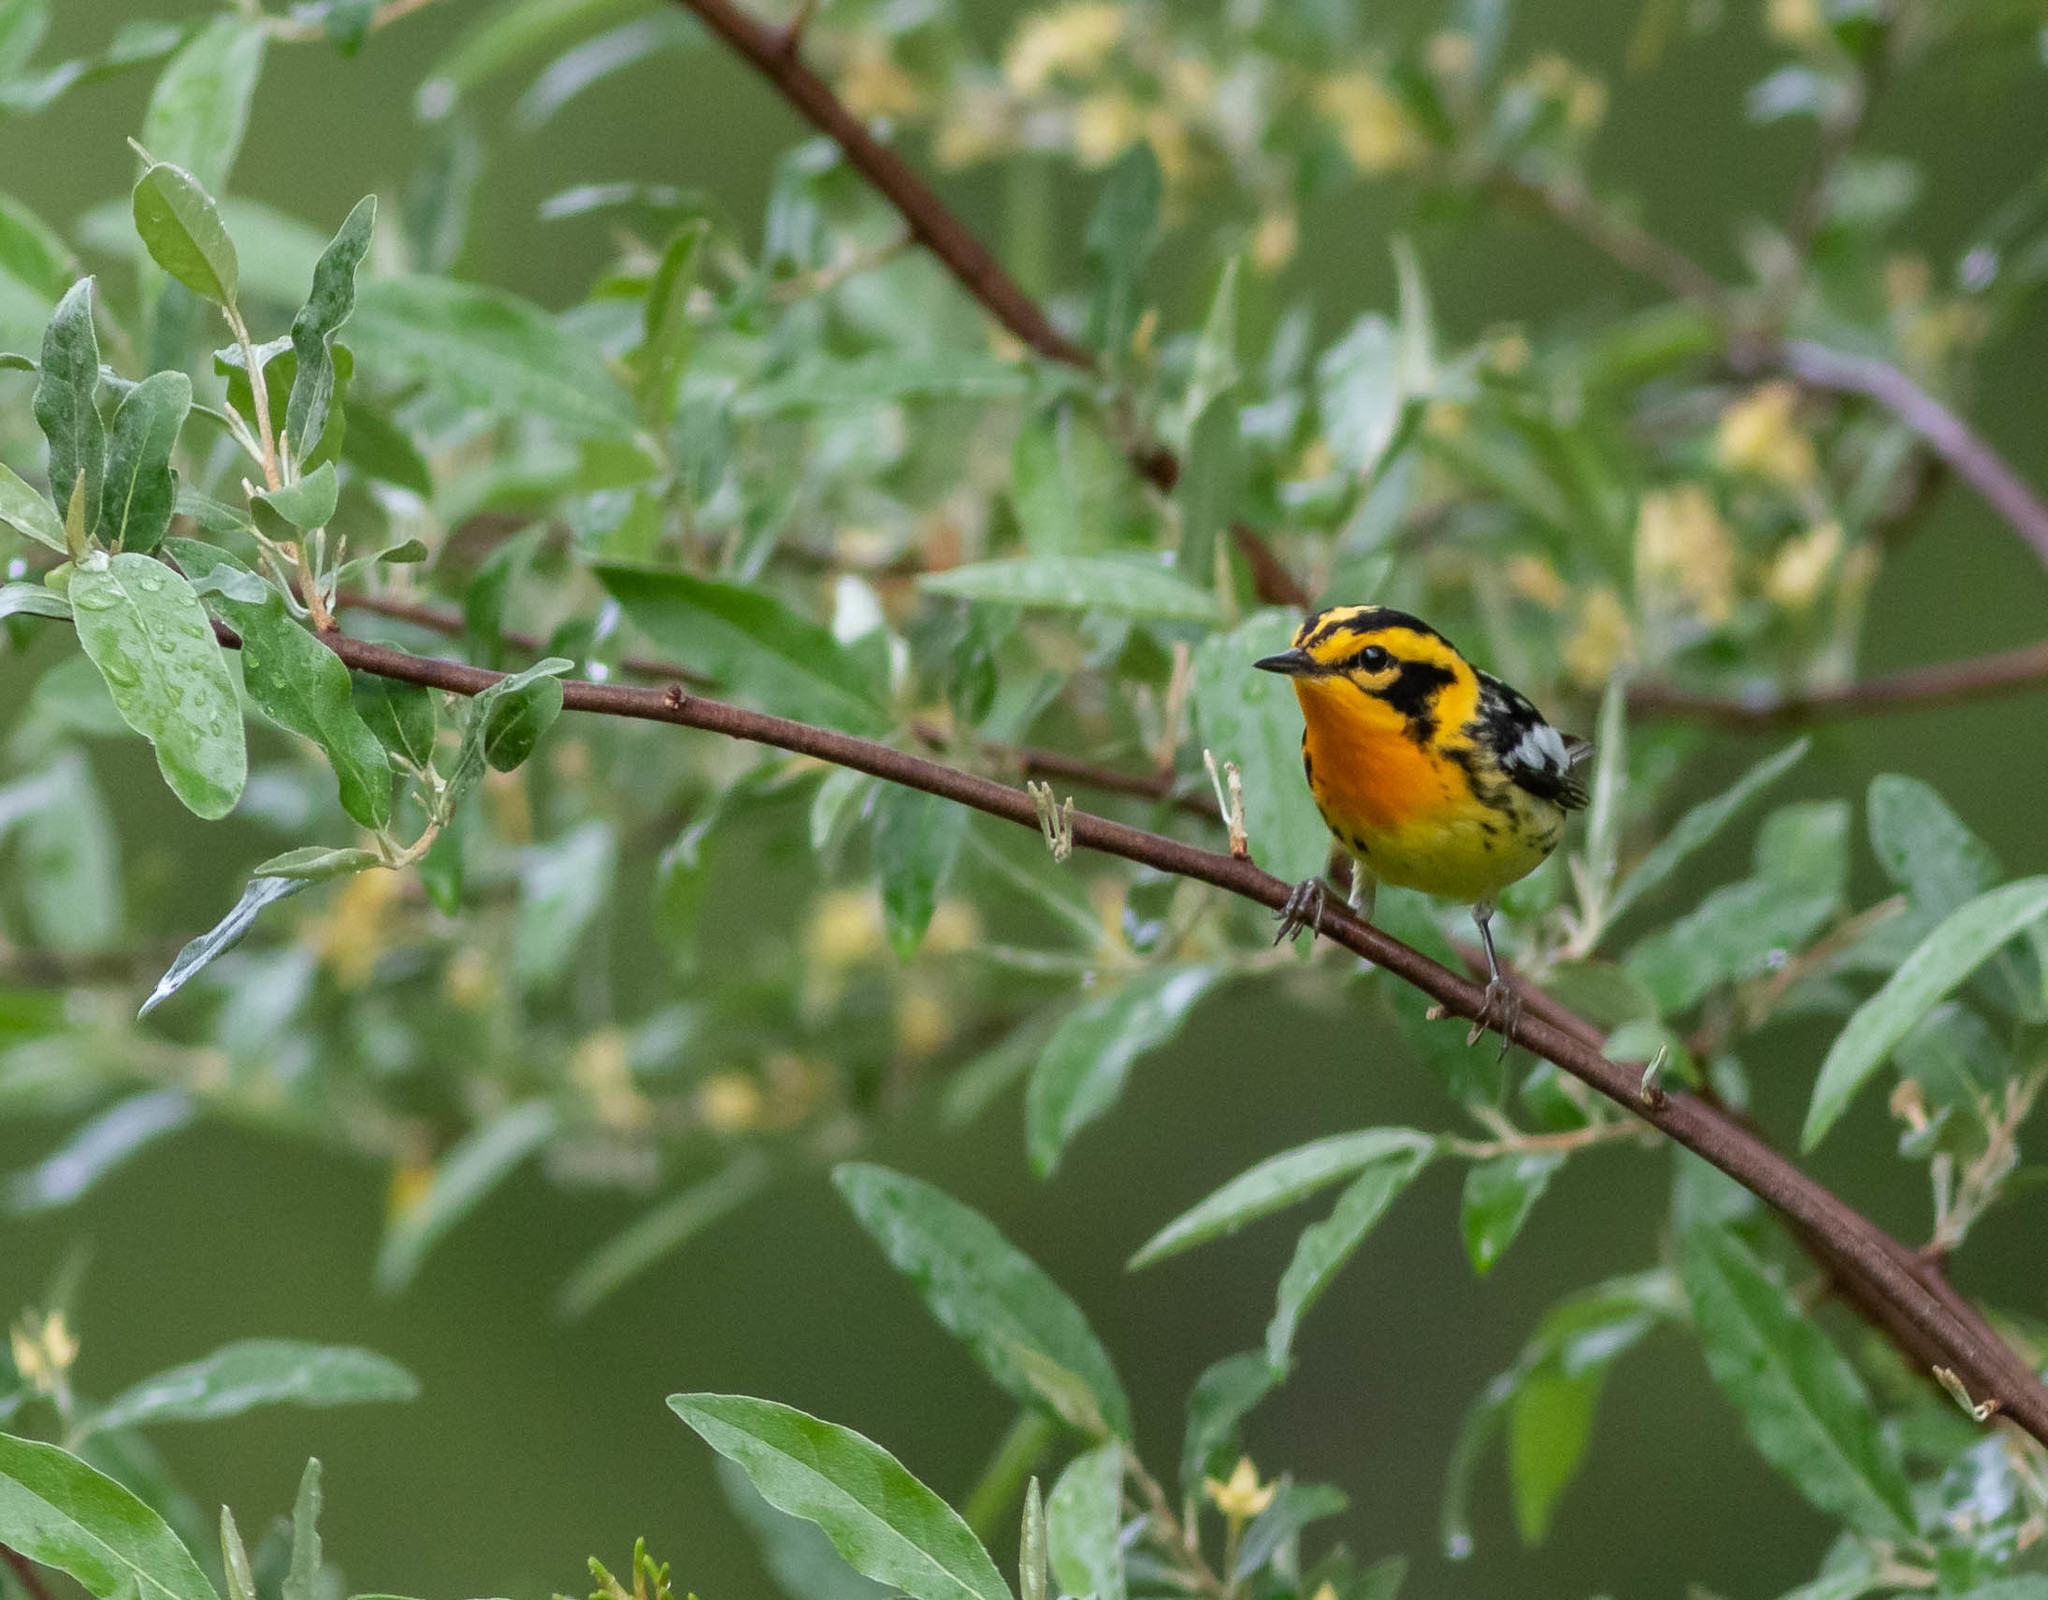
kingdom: Animalia
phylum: Chordata
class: Aves
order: Passeriformes
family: Parulidae
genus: Setophaga
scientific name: Setophaga fusca
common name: Blackburnian warbler
